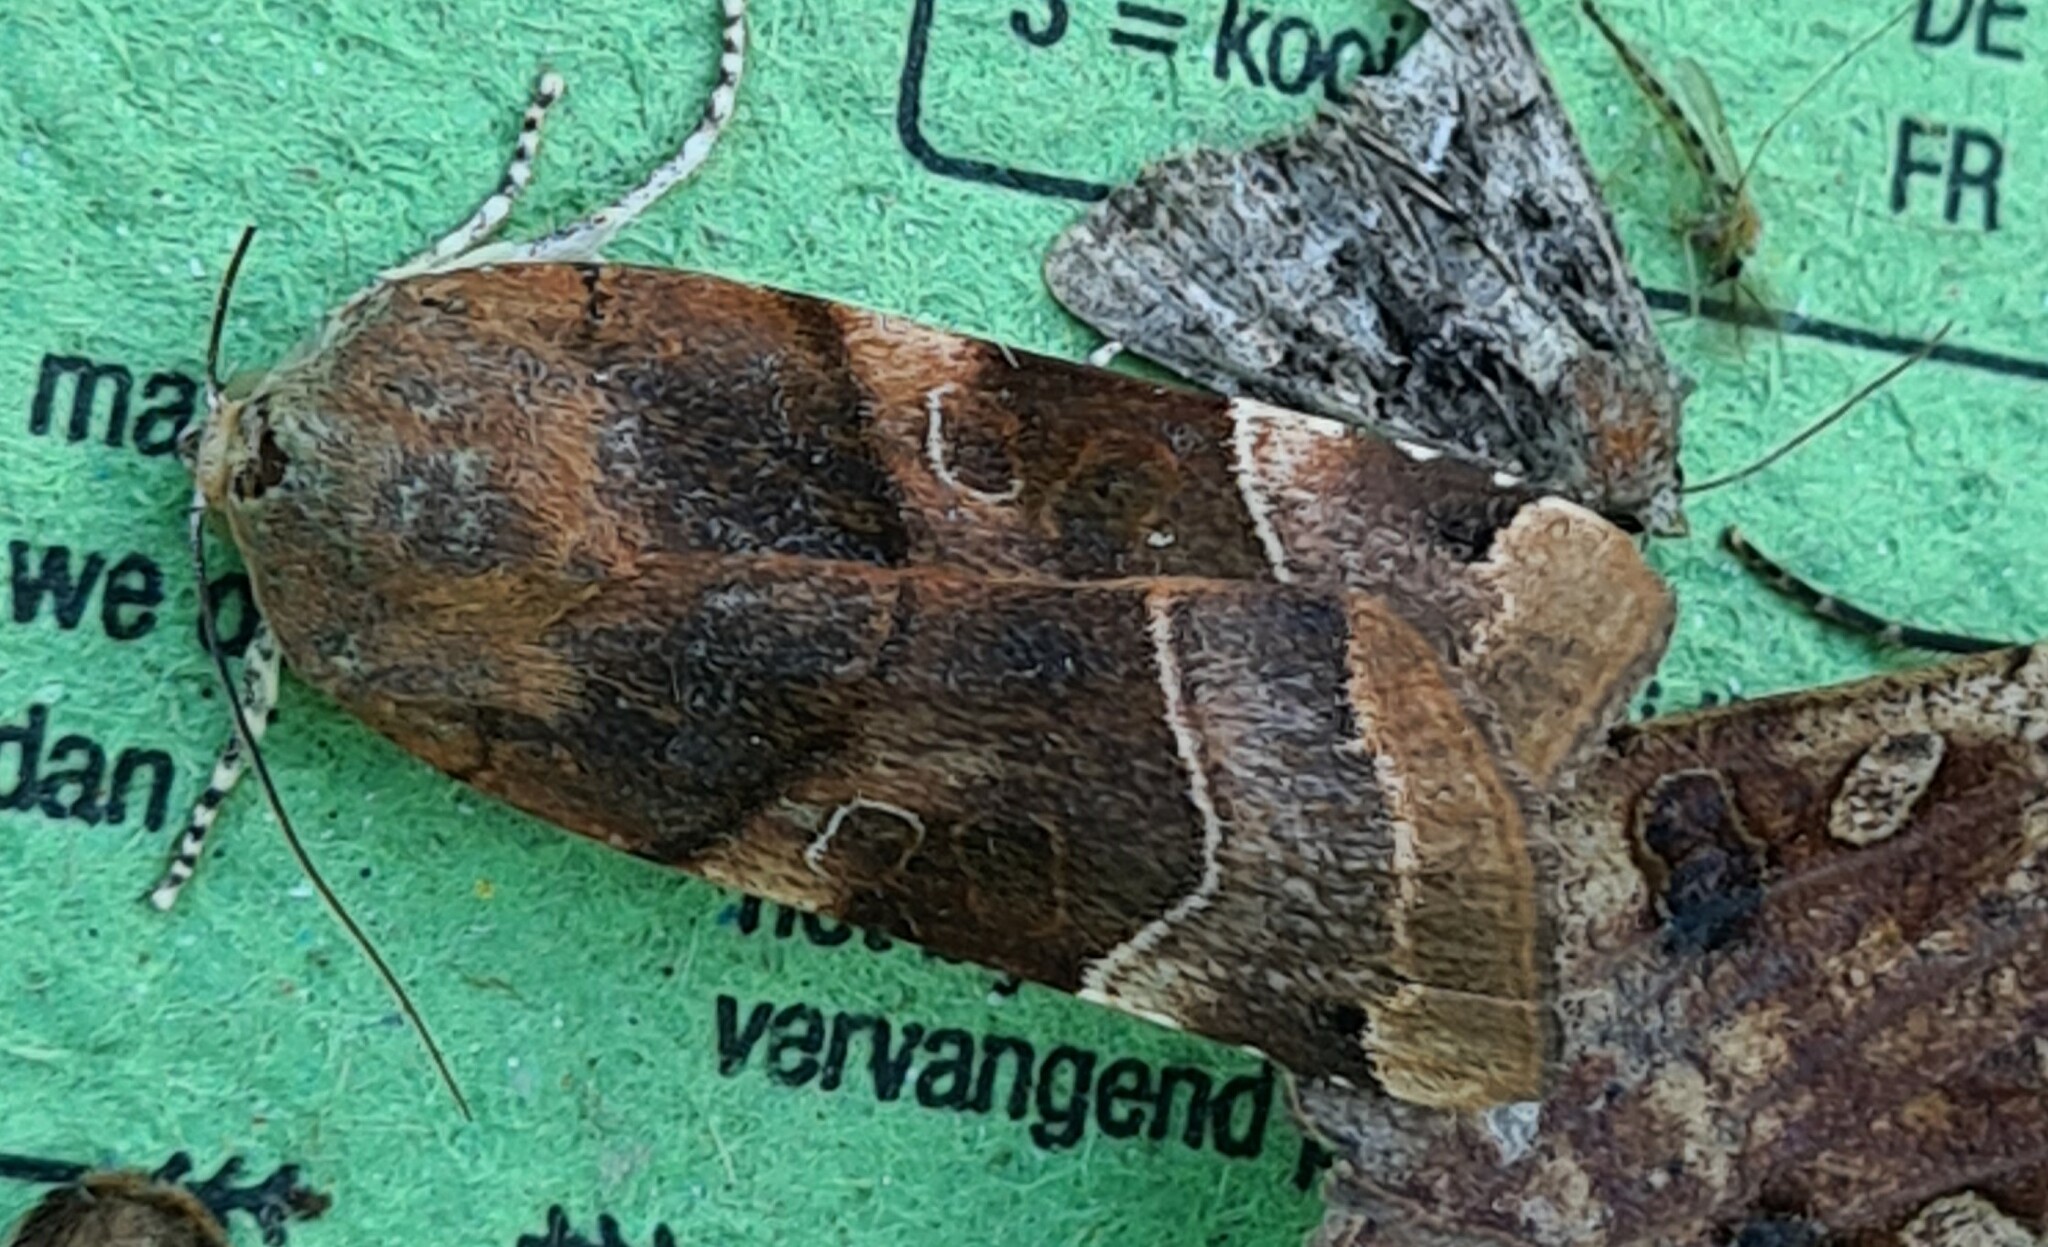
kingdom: Animalia
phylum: Arthropoda
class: Insecta
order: Lepidoptera
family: Noctuidae
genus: Noctua
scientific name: Noctua fimbriata
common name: Broad-bordered yellow underwing
